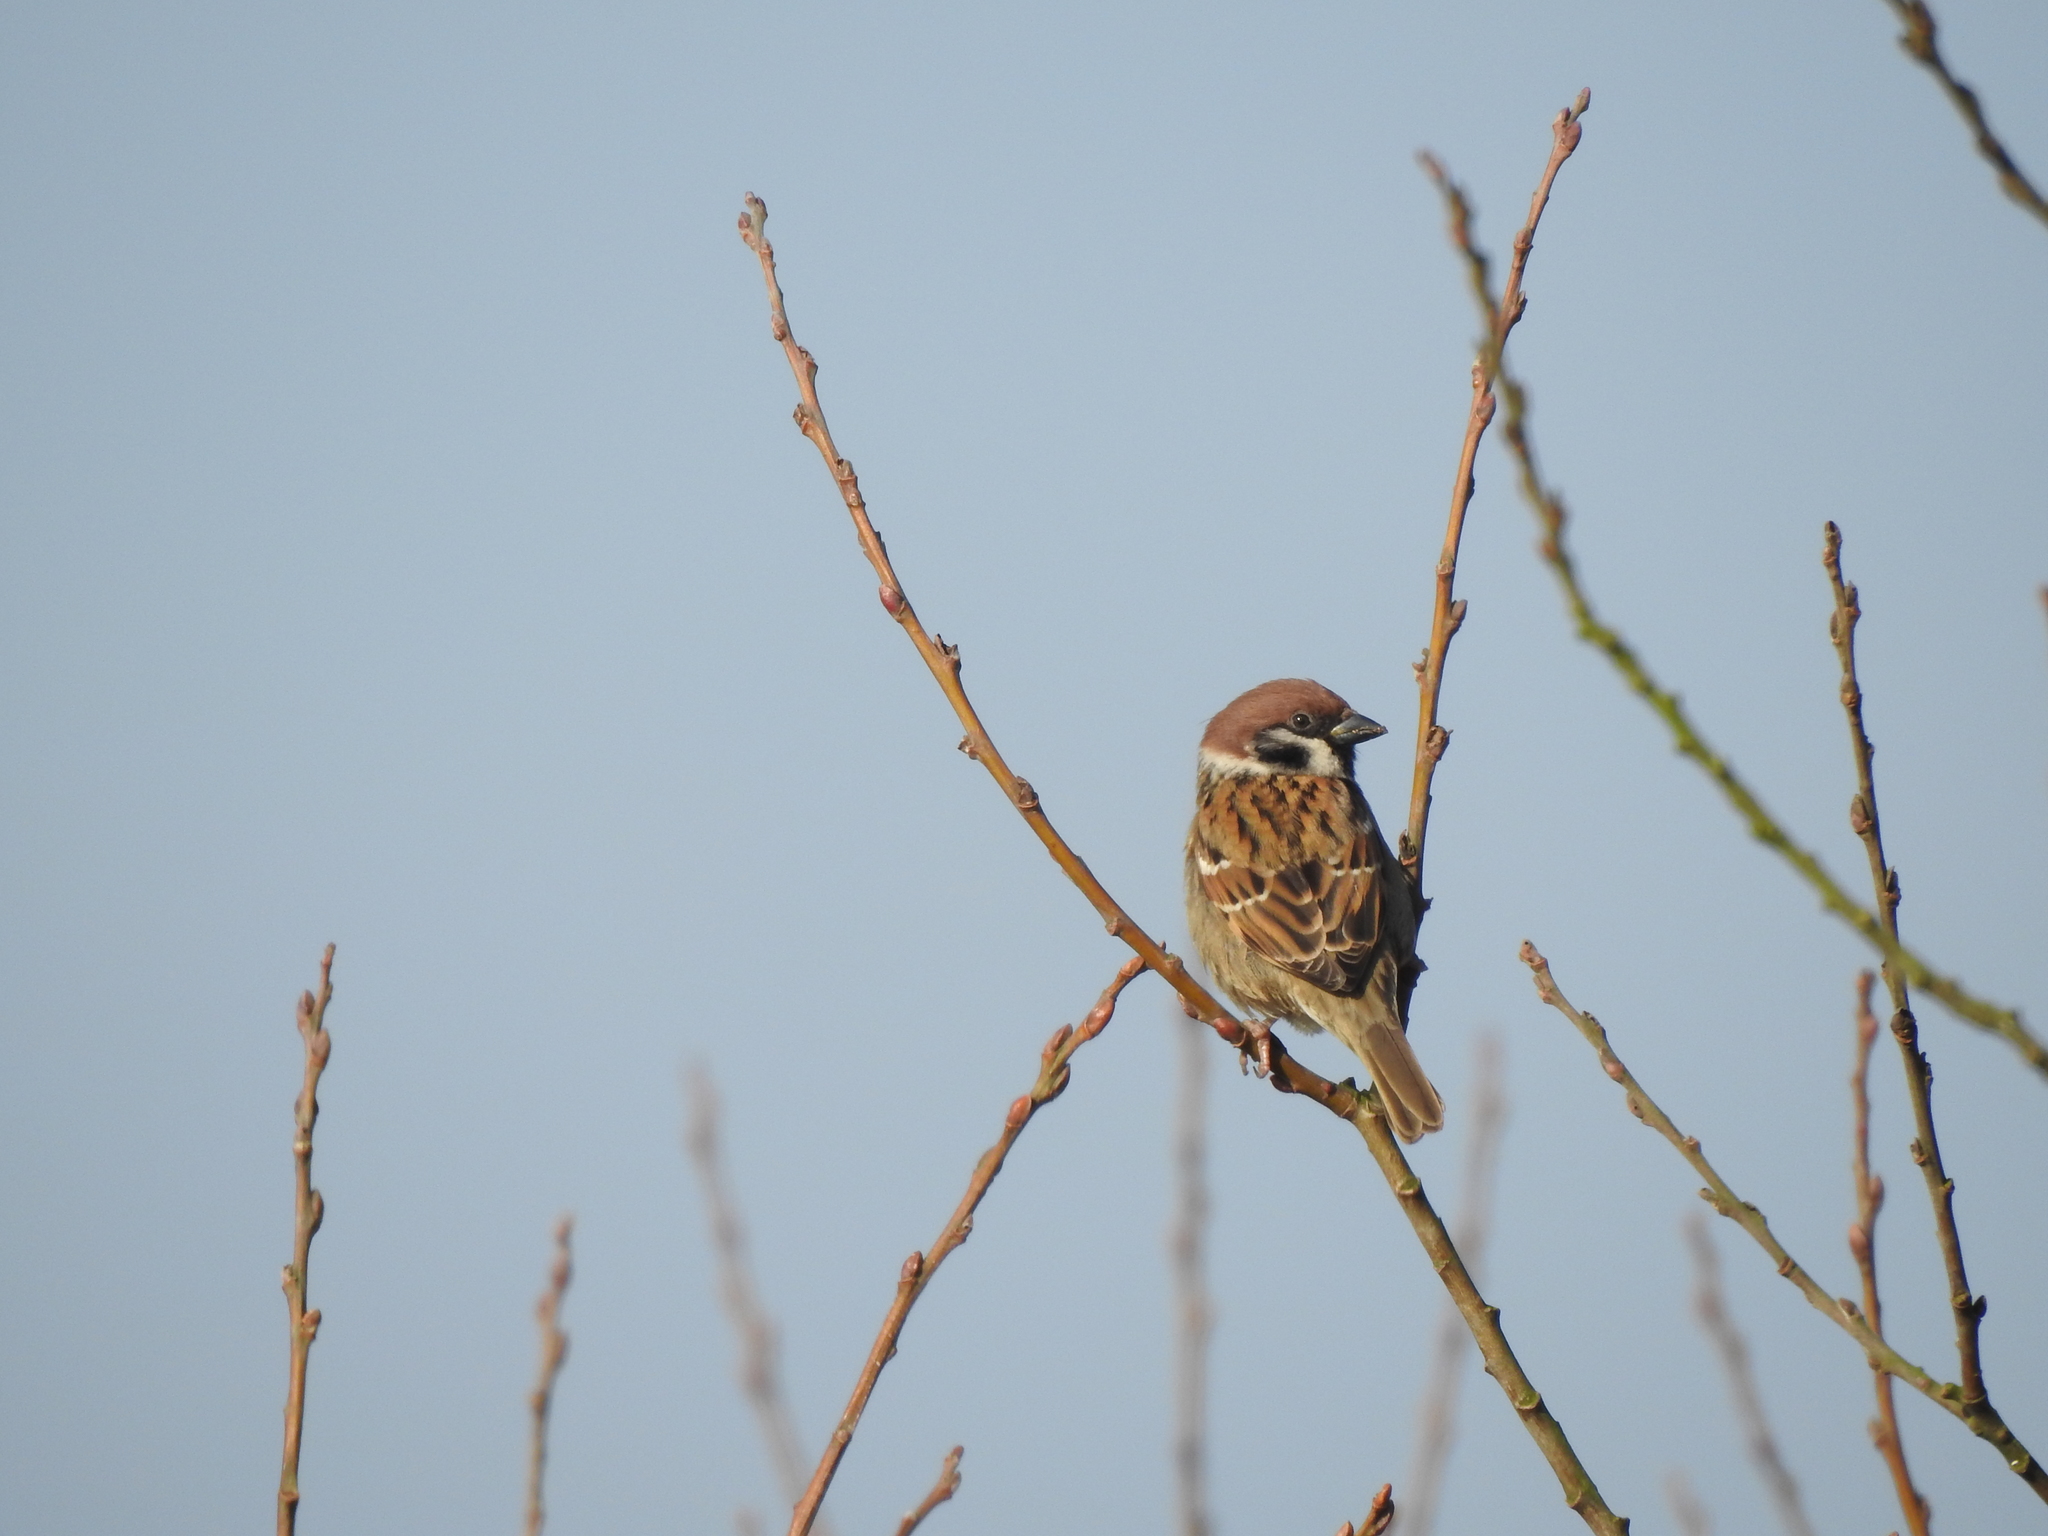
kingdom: Animalia
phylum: Chordata
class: Aves
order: Passeriformes
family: Passeridae
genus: Passer
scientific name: Passer montanus
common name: Eurasian tree sparrow
